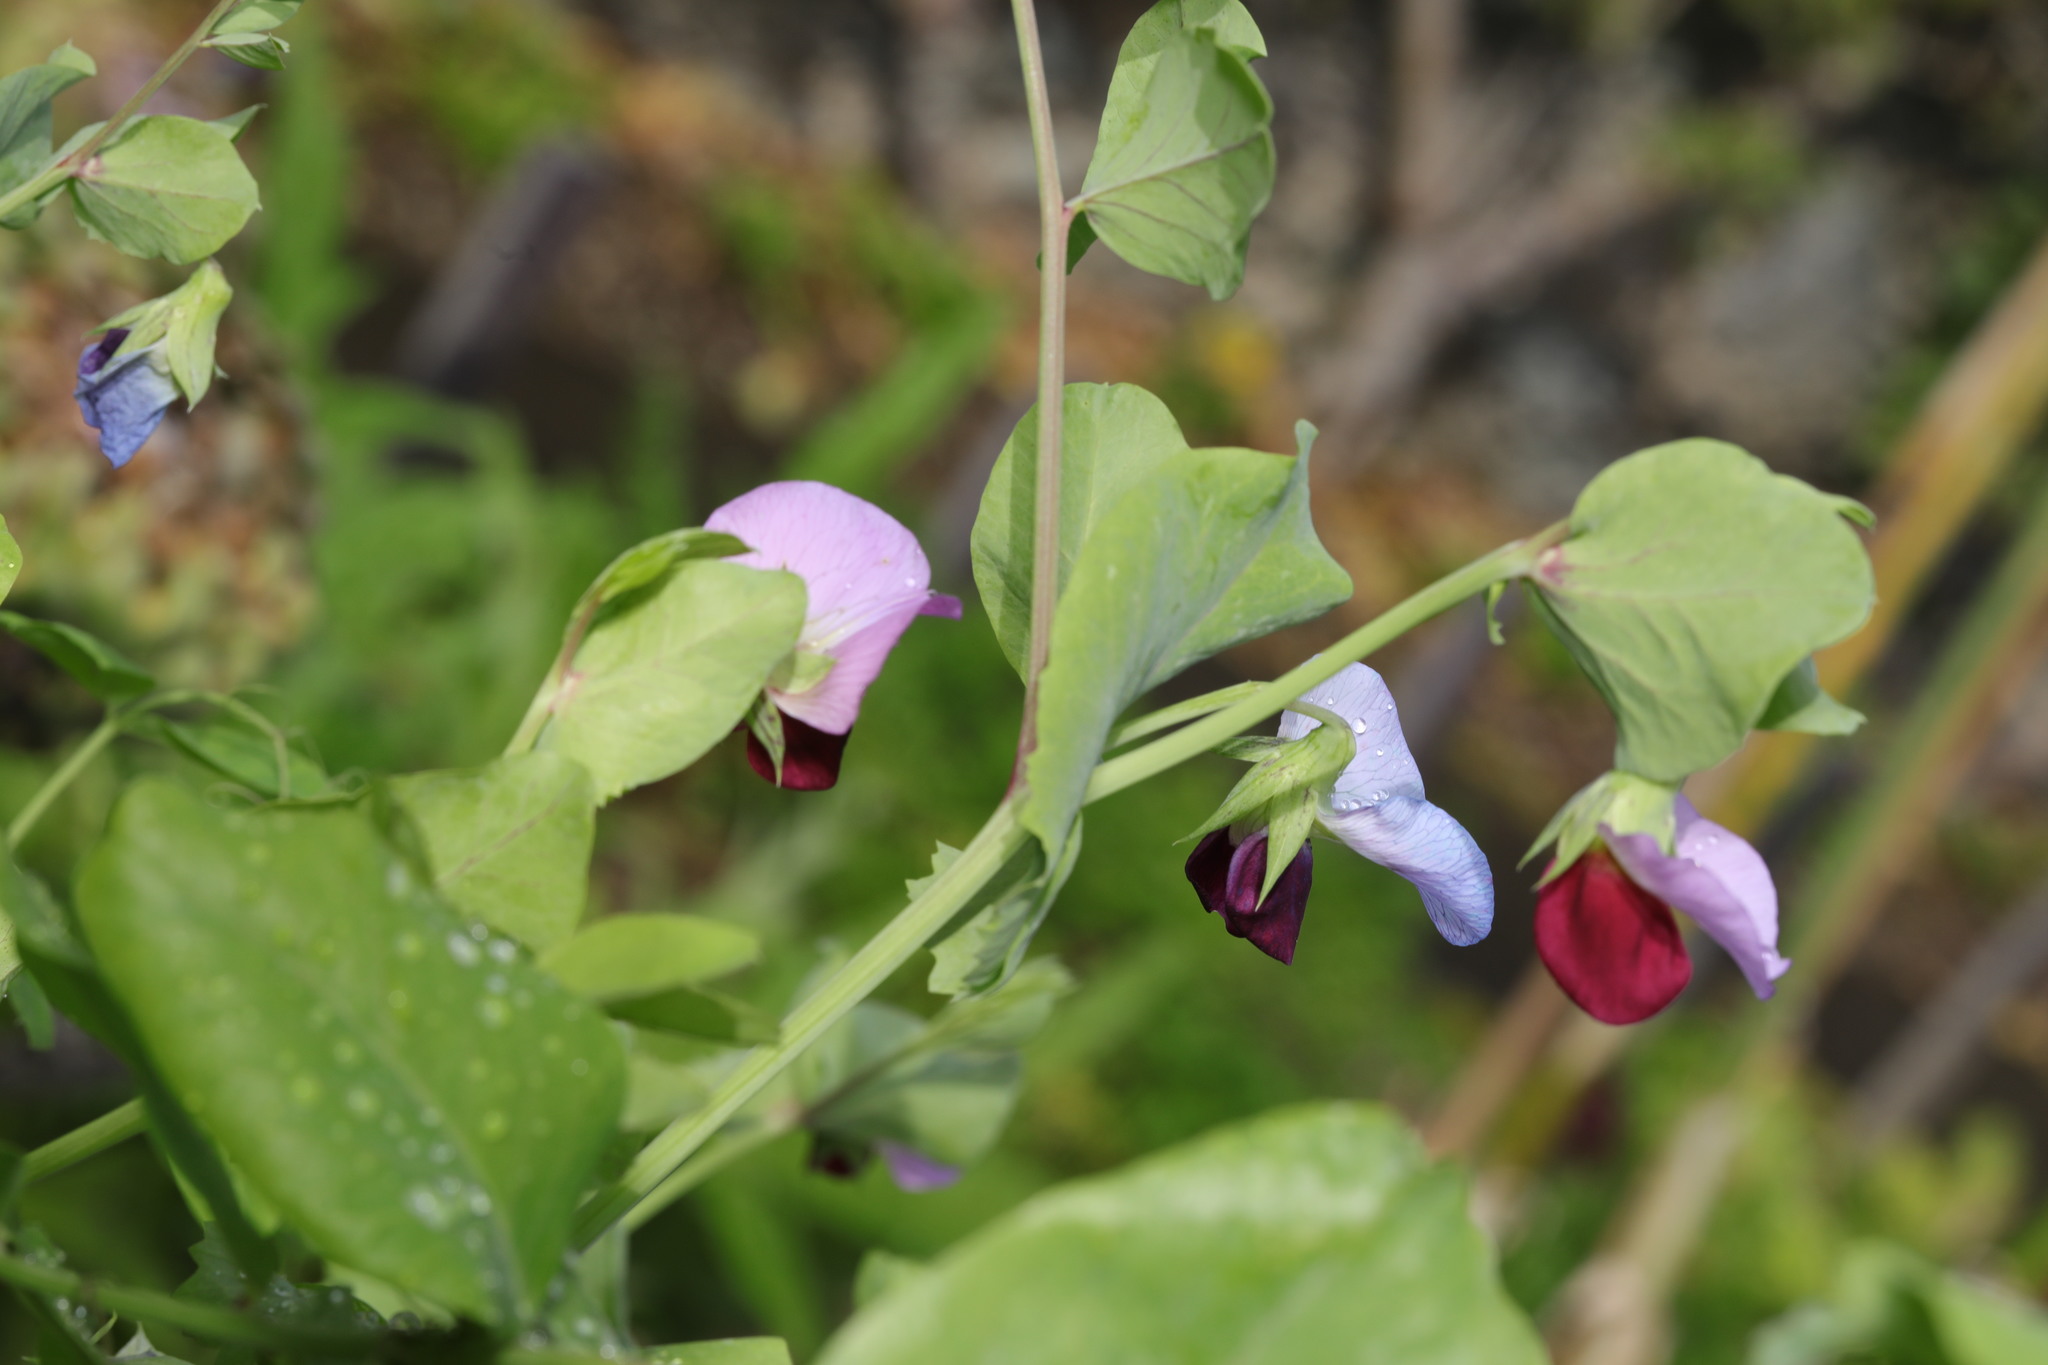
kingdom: Plantae
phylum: Tracheophyta
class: Magnoliopsida
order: Fabales
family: Fabaceae
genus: Lathyrus
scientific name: Lathyrus oleraceus
